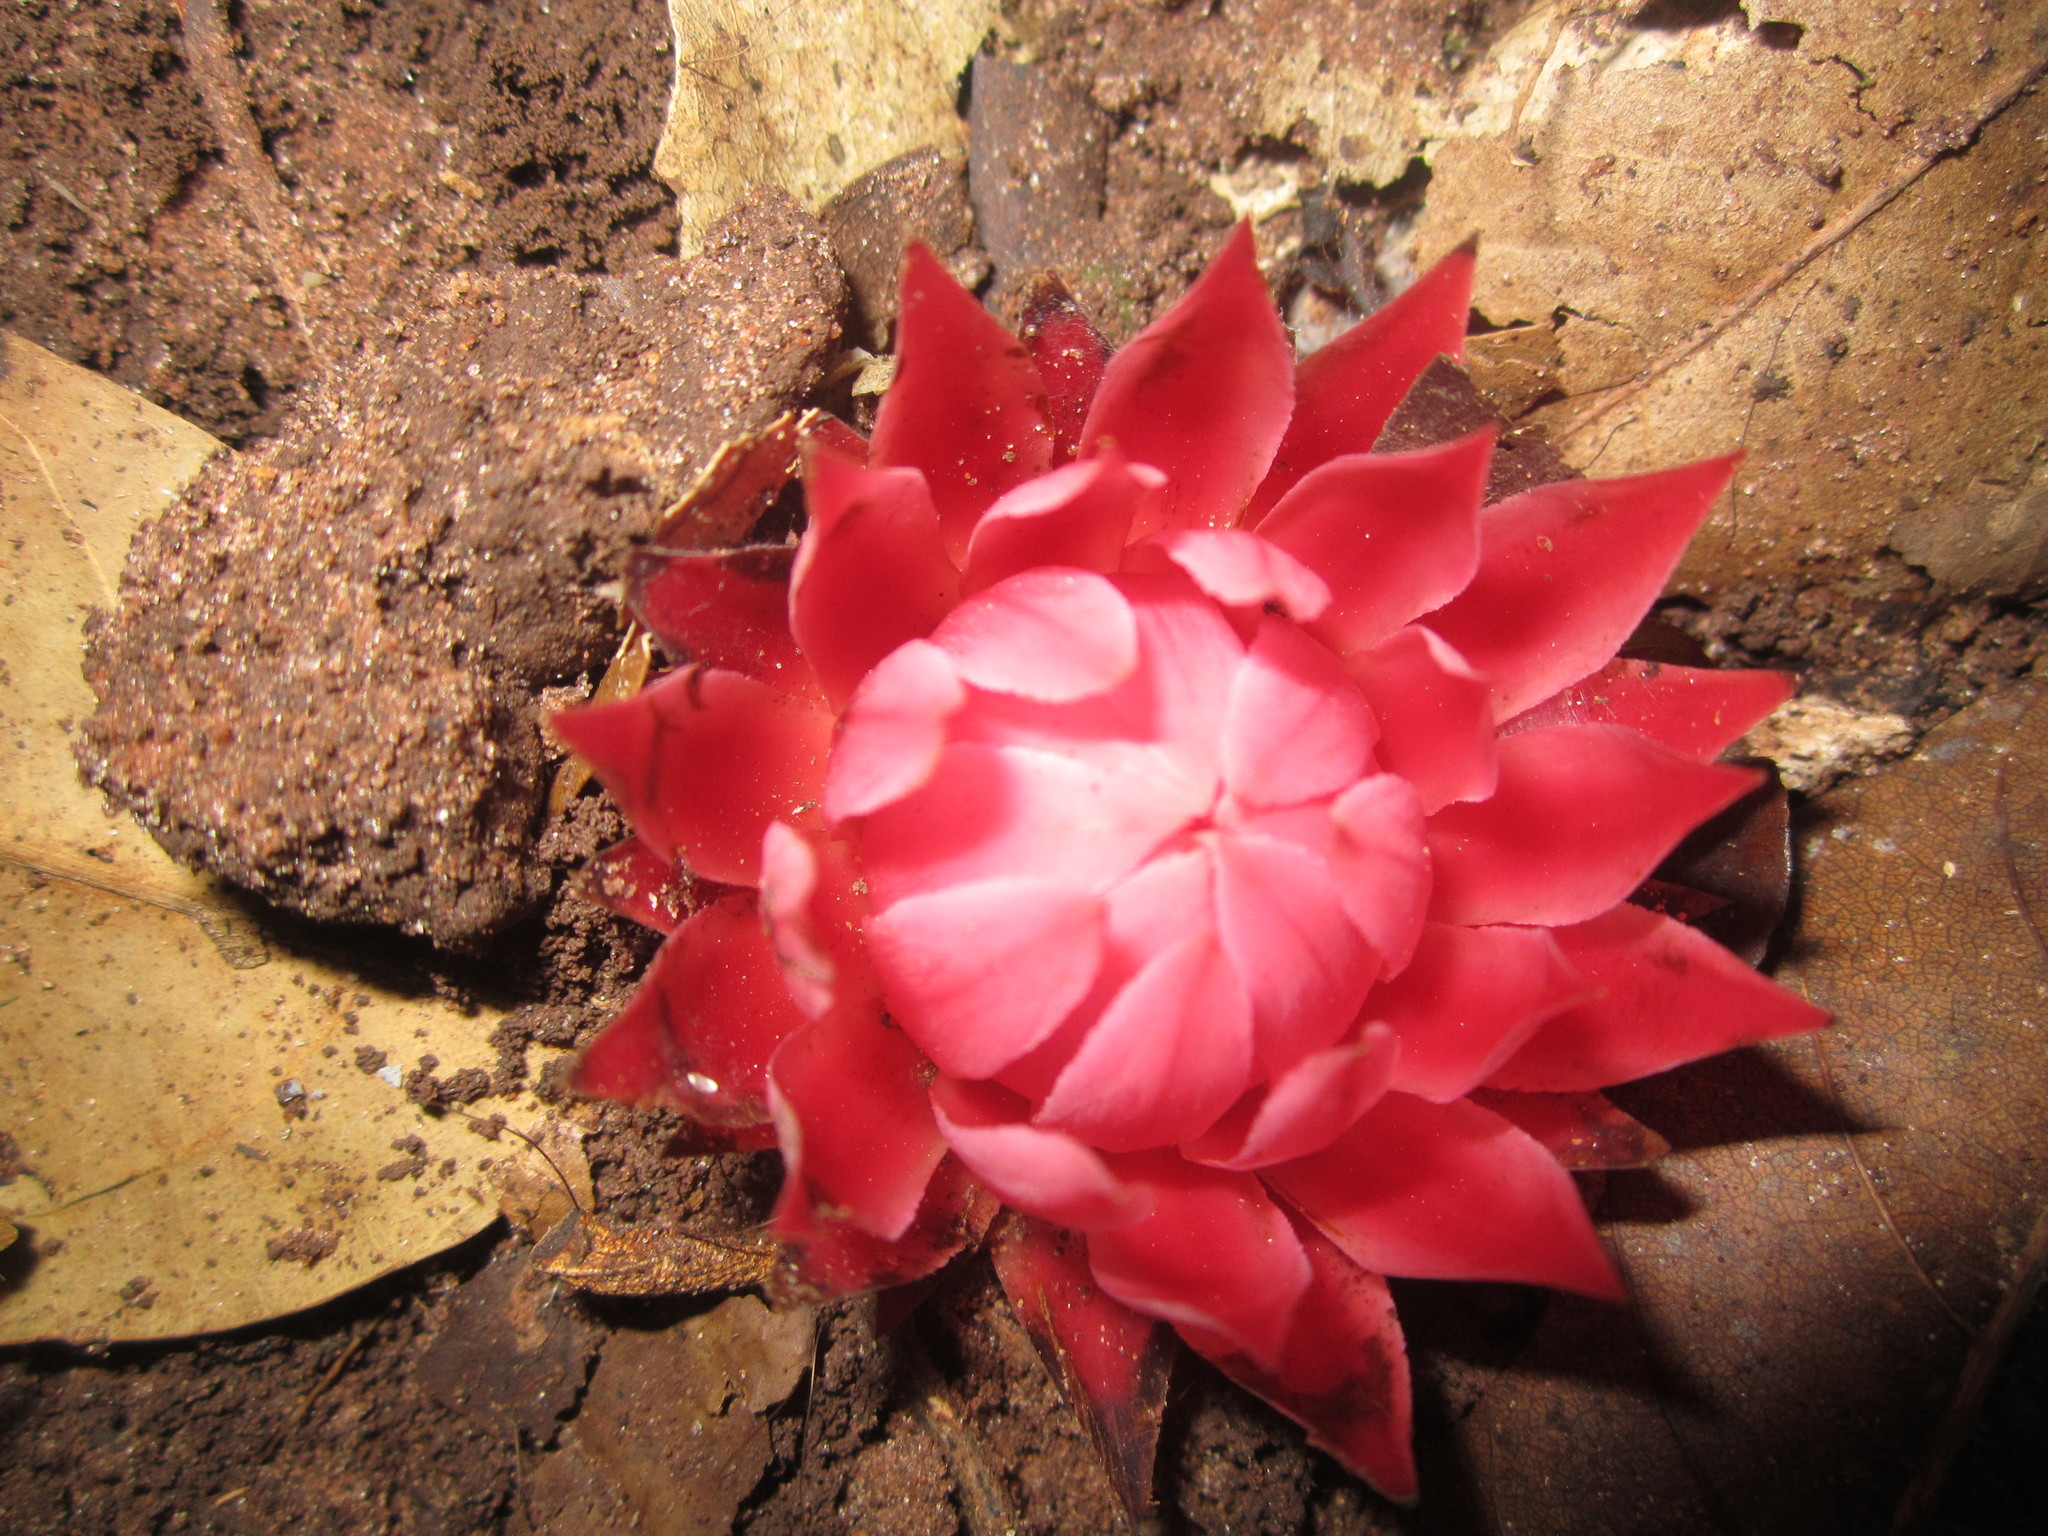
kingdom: Plantae
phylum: Tracheophyta
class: Magnoliopsida
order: Santalales
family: Balanophoraceae
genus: Thonningia
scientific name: Thonningia sanguinea
